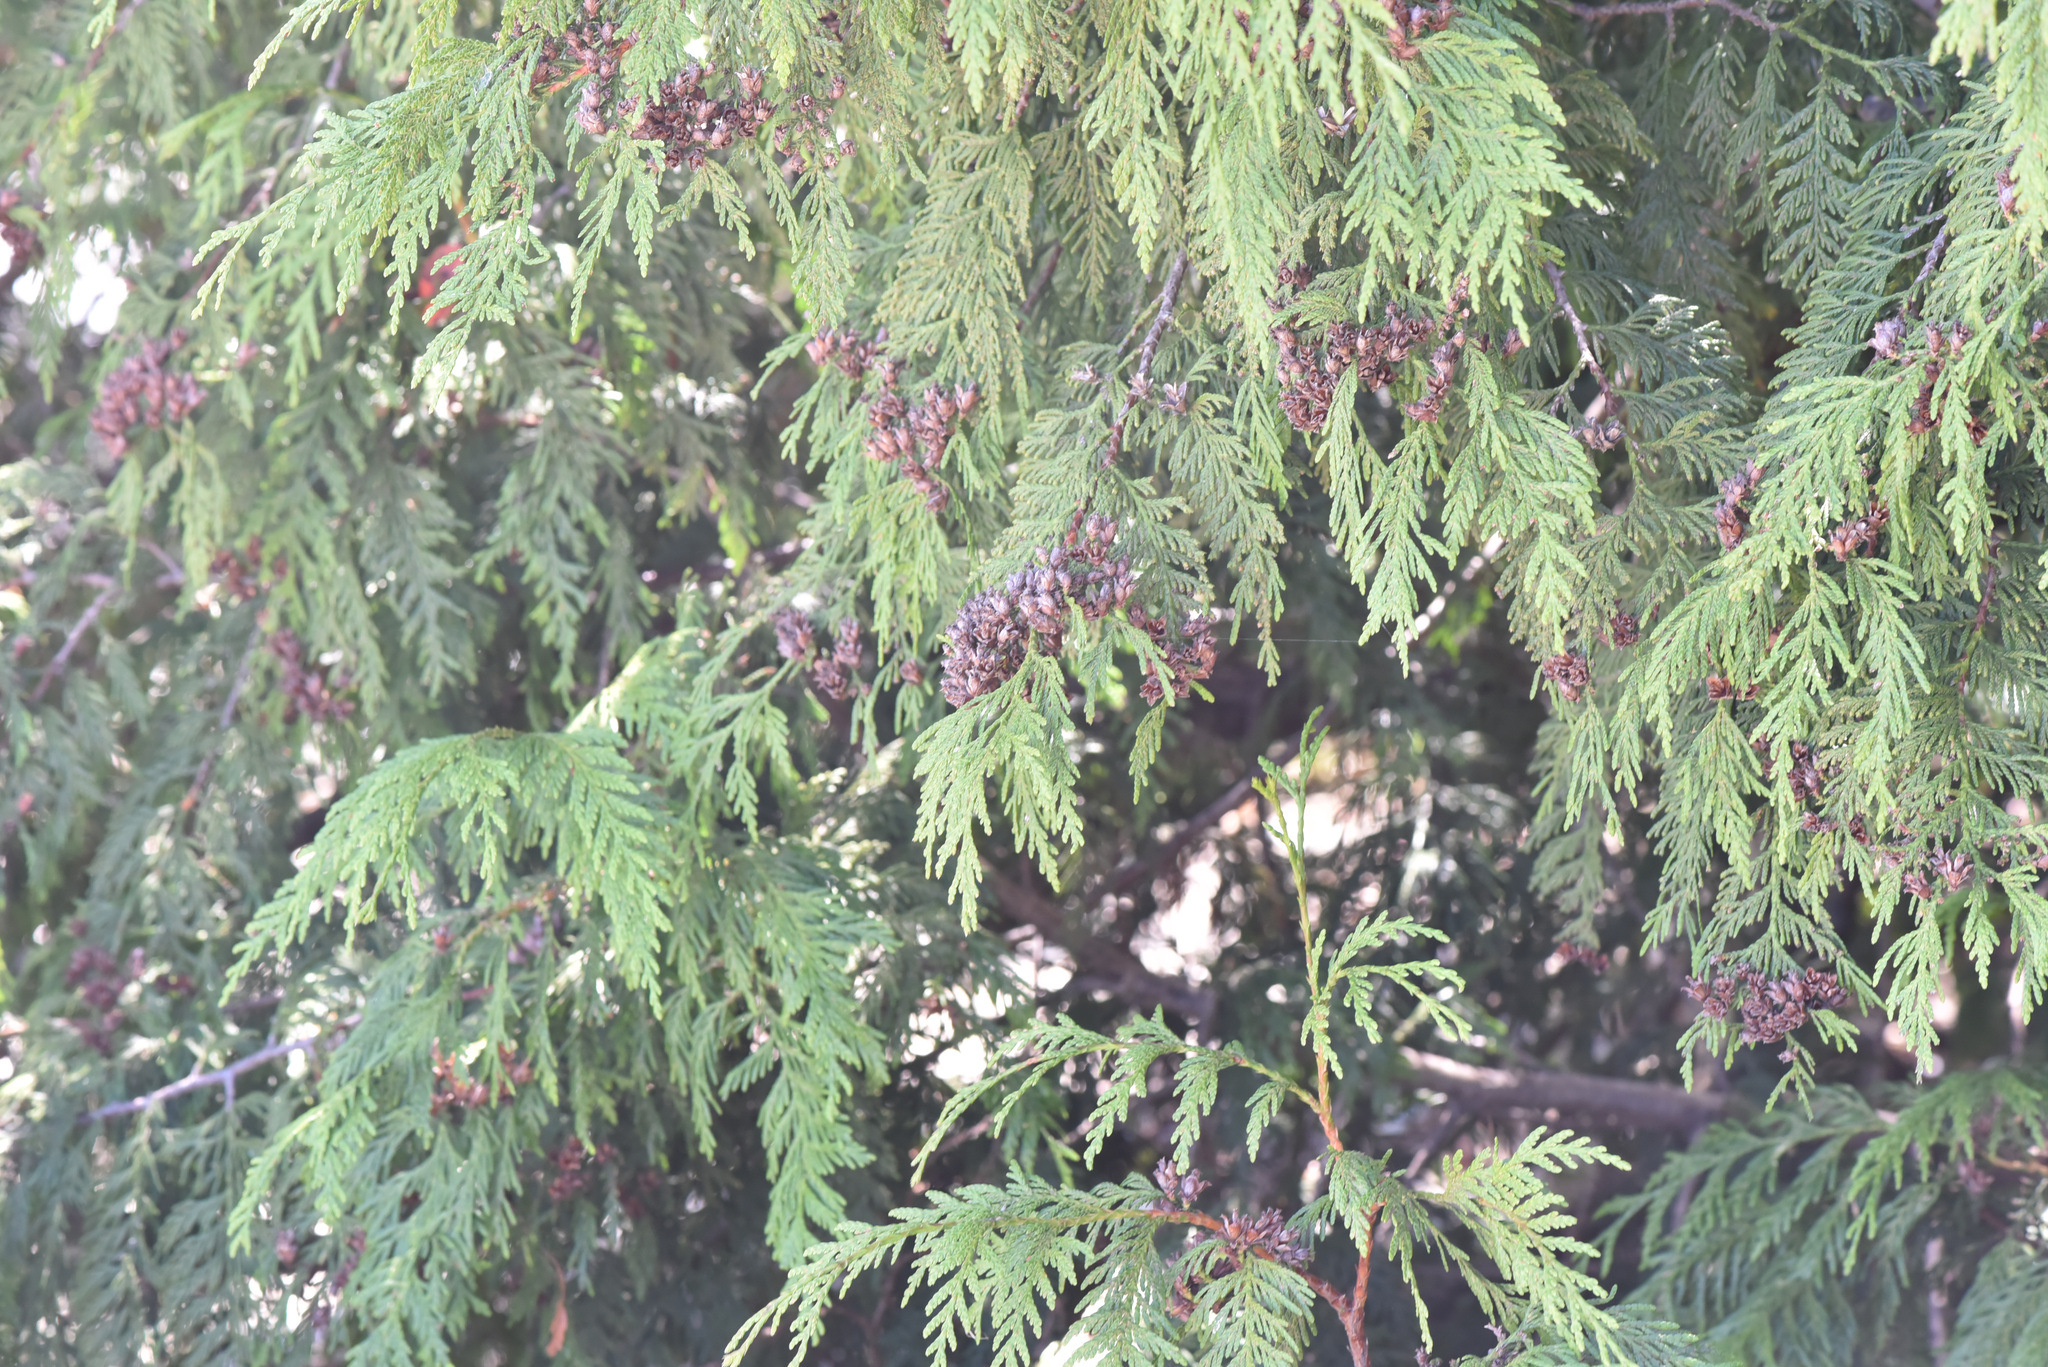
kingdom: Plantae
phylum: Tracheophyta
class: Pinopsida
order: Pinales
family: Cupressaceae
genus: Thuja
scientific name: Thuja plicata
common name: Western red-cedar
